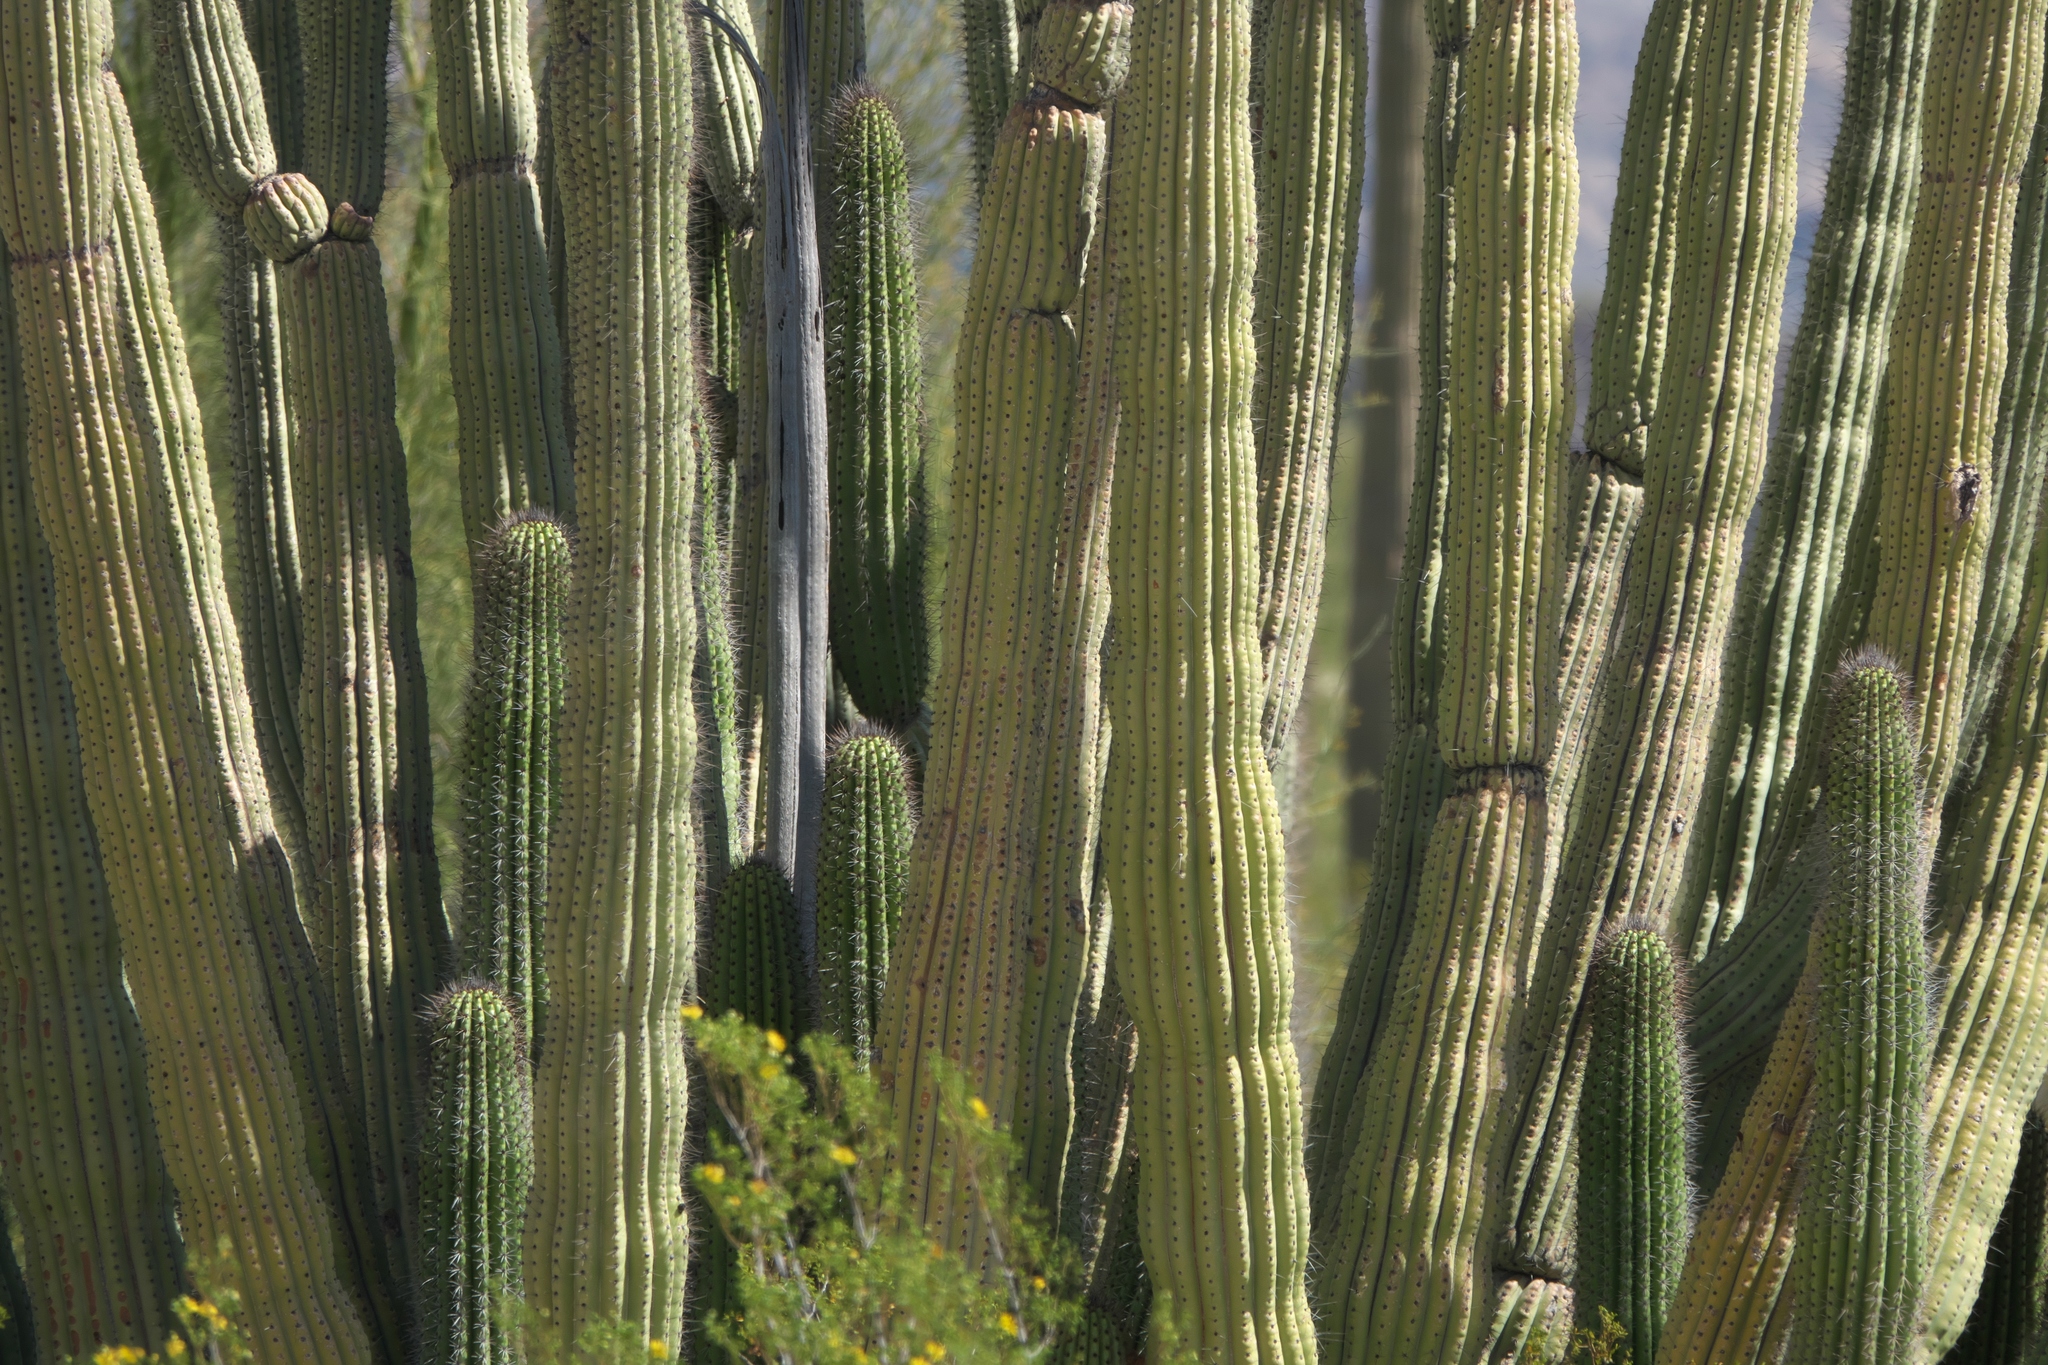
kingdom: Plantae
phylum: Tracheophyta
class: Magnoliopsida
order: Caryophyllales
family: Cactaceae
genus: Stenocereus
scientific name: Stenocereus thurberi
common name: Organ pipe cactus
